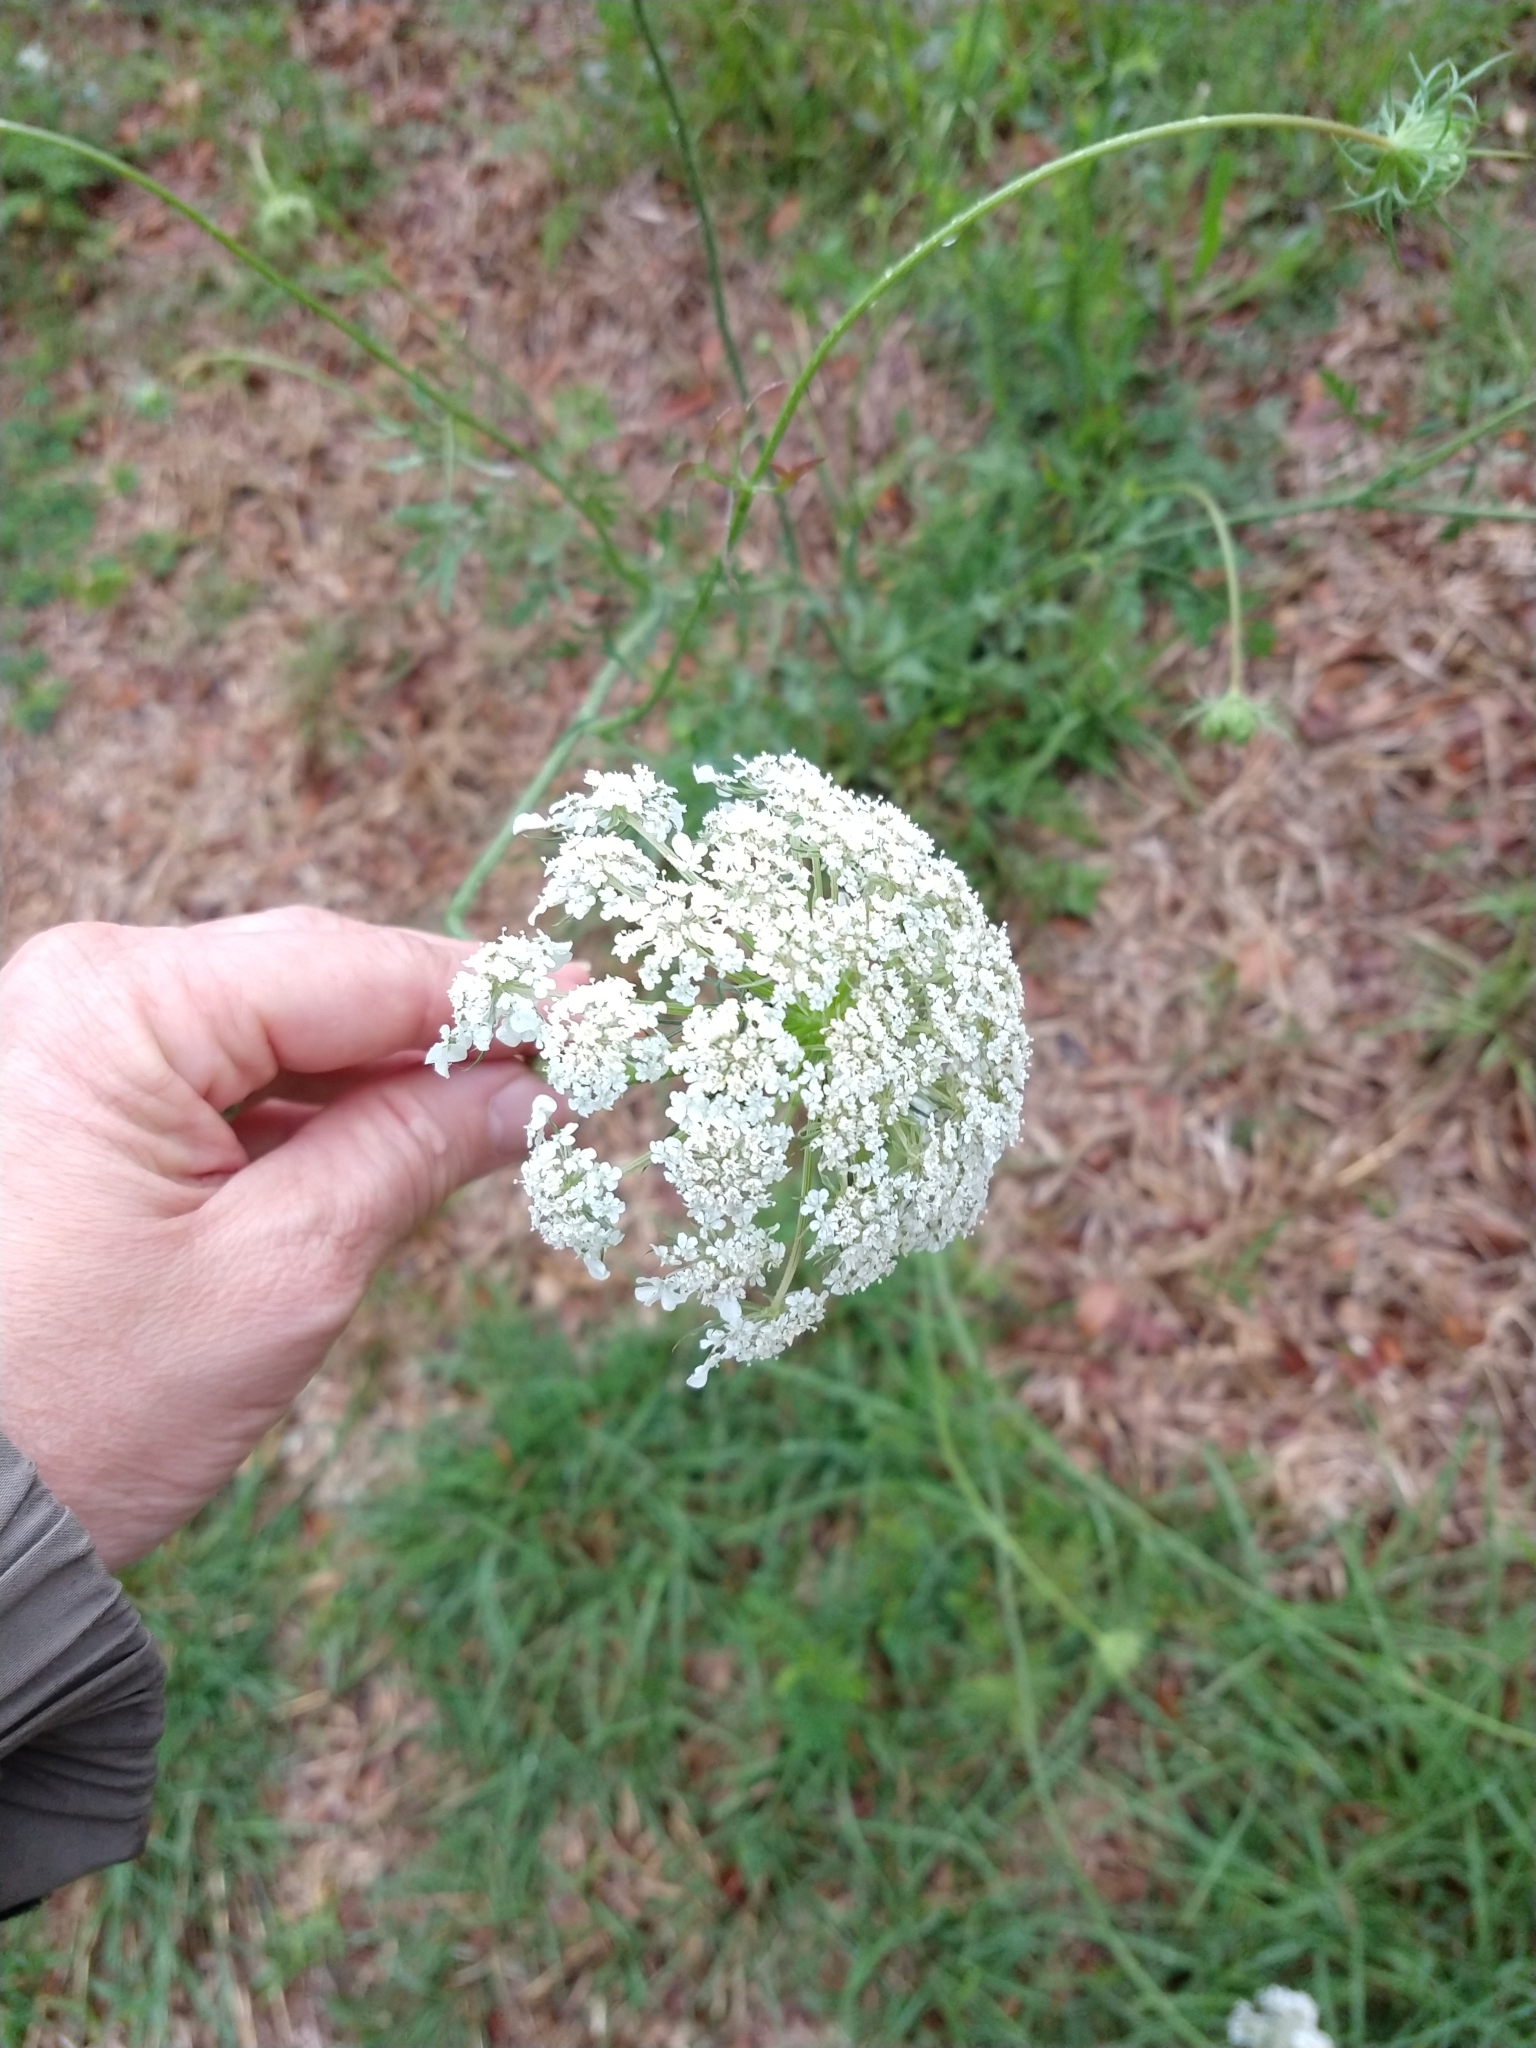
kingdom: Plantae
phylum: Tracheophyta
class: Magnoliopsida
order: Apiales
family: Apiaceae
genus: Daucus
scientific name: Daucus carota
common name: Wild carrot
